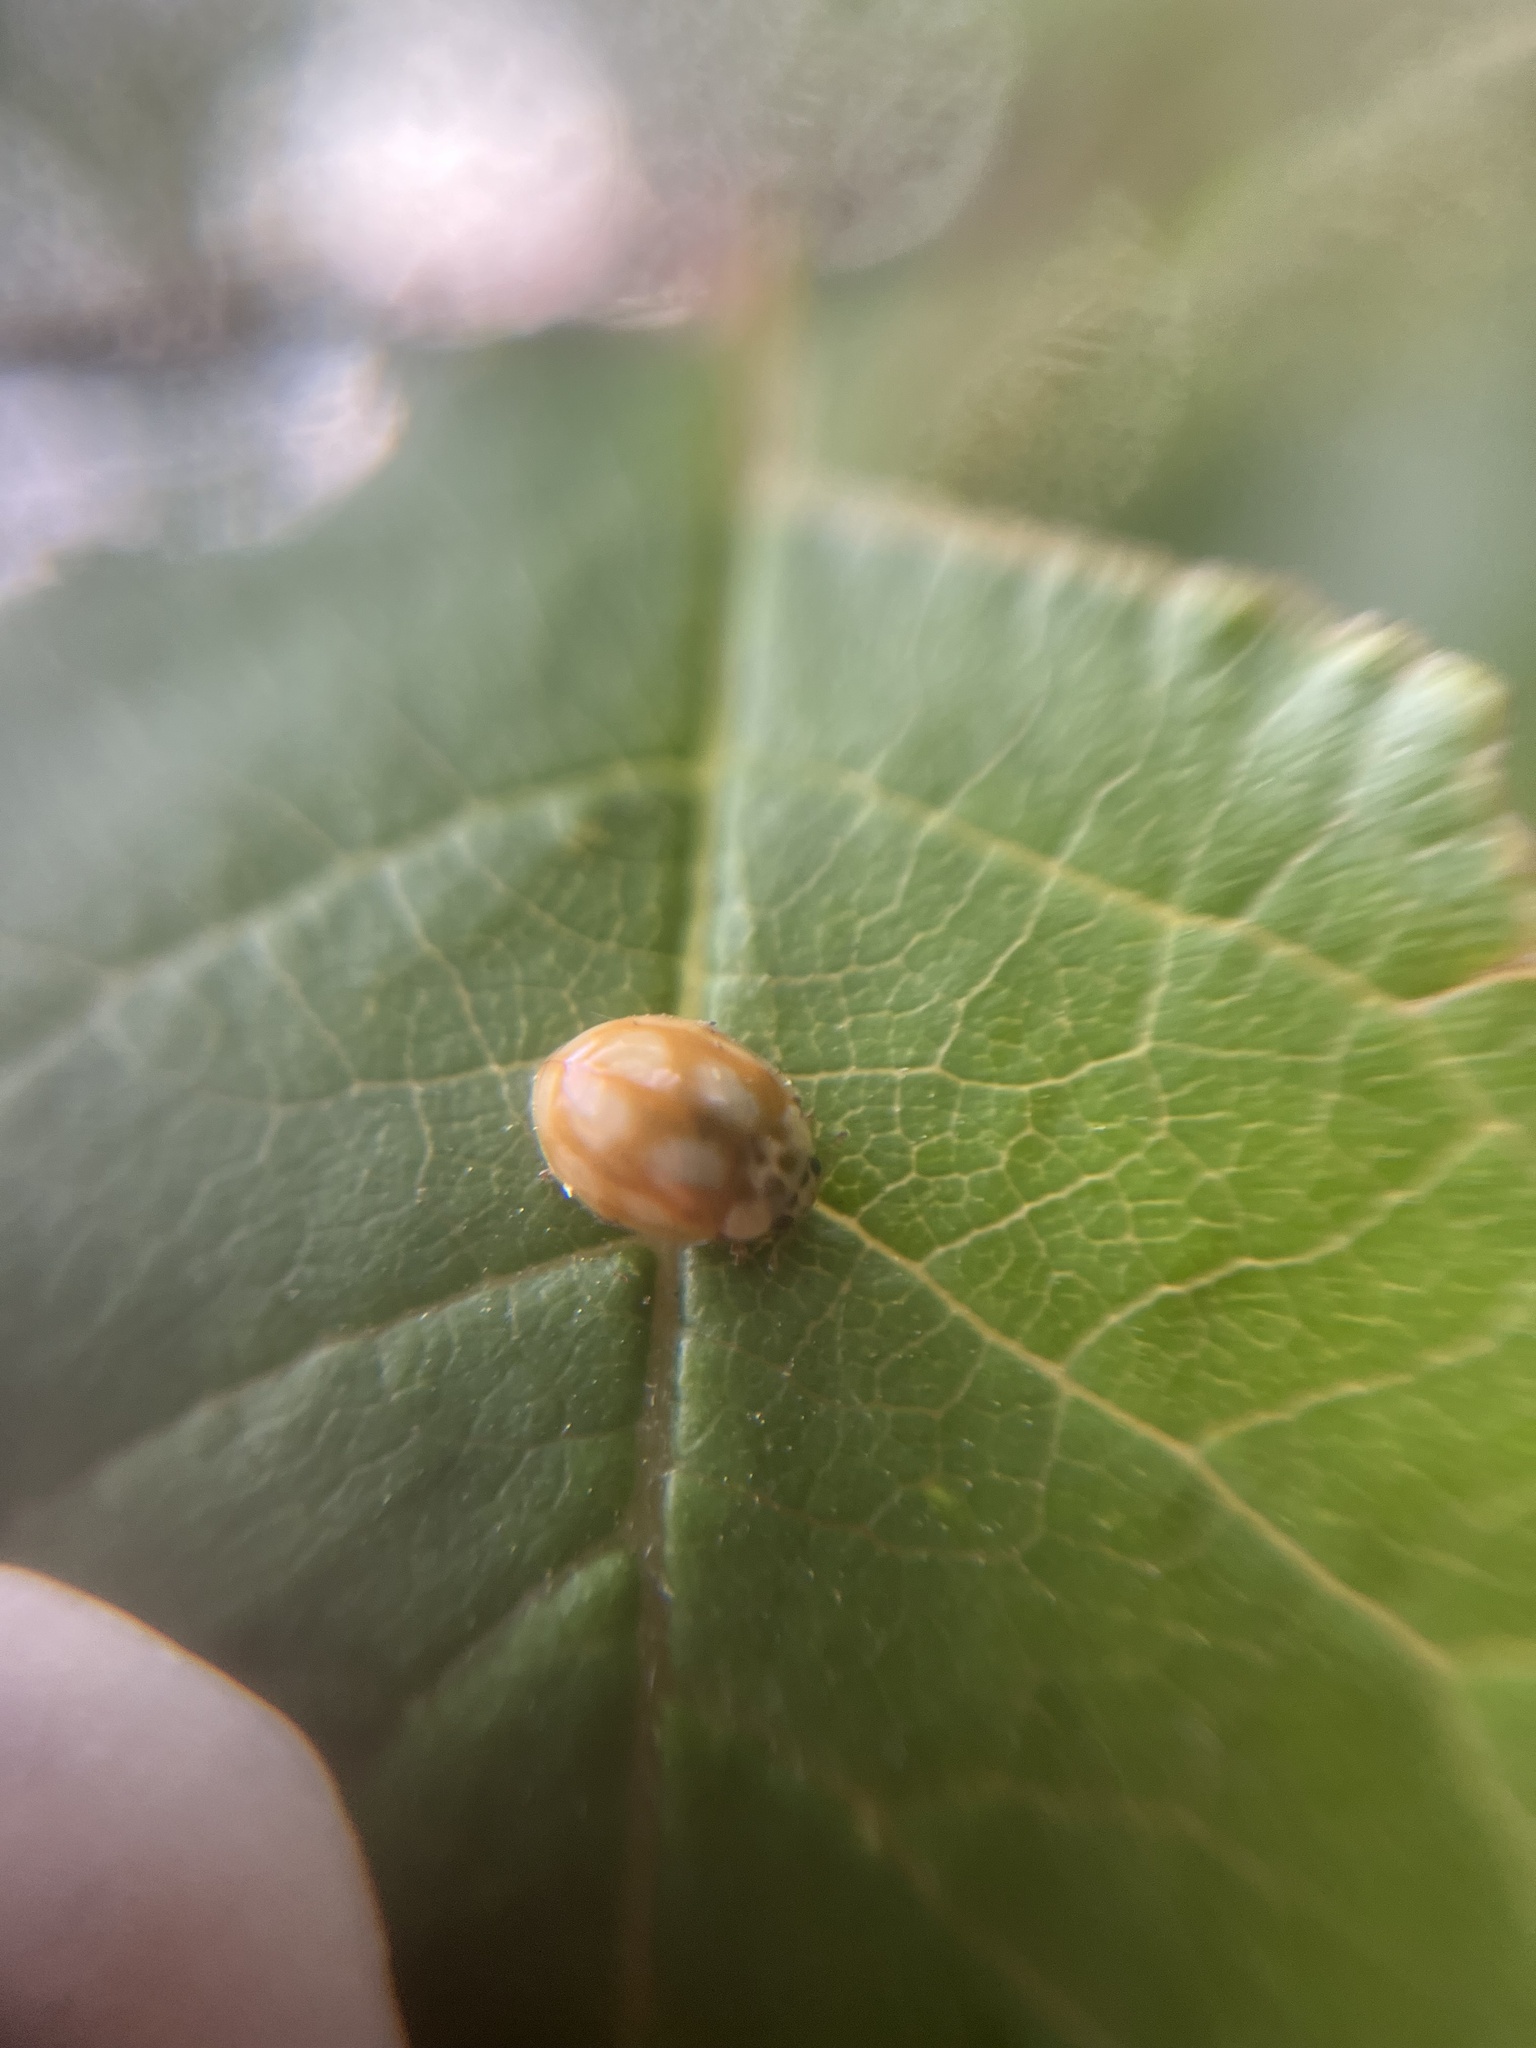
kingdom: Animalia
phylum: Arthropoda
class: Insecta
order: Coleoptera
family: Coccinellidae
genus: Adalia
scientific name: Adalia decempunctata
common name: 10-spot ladybird
